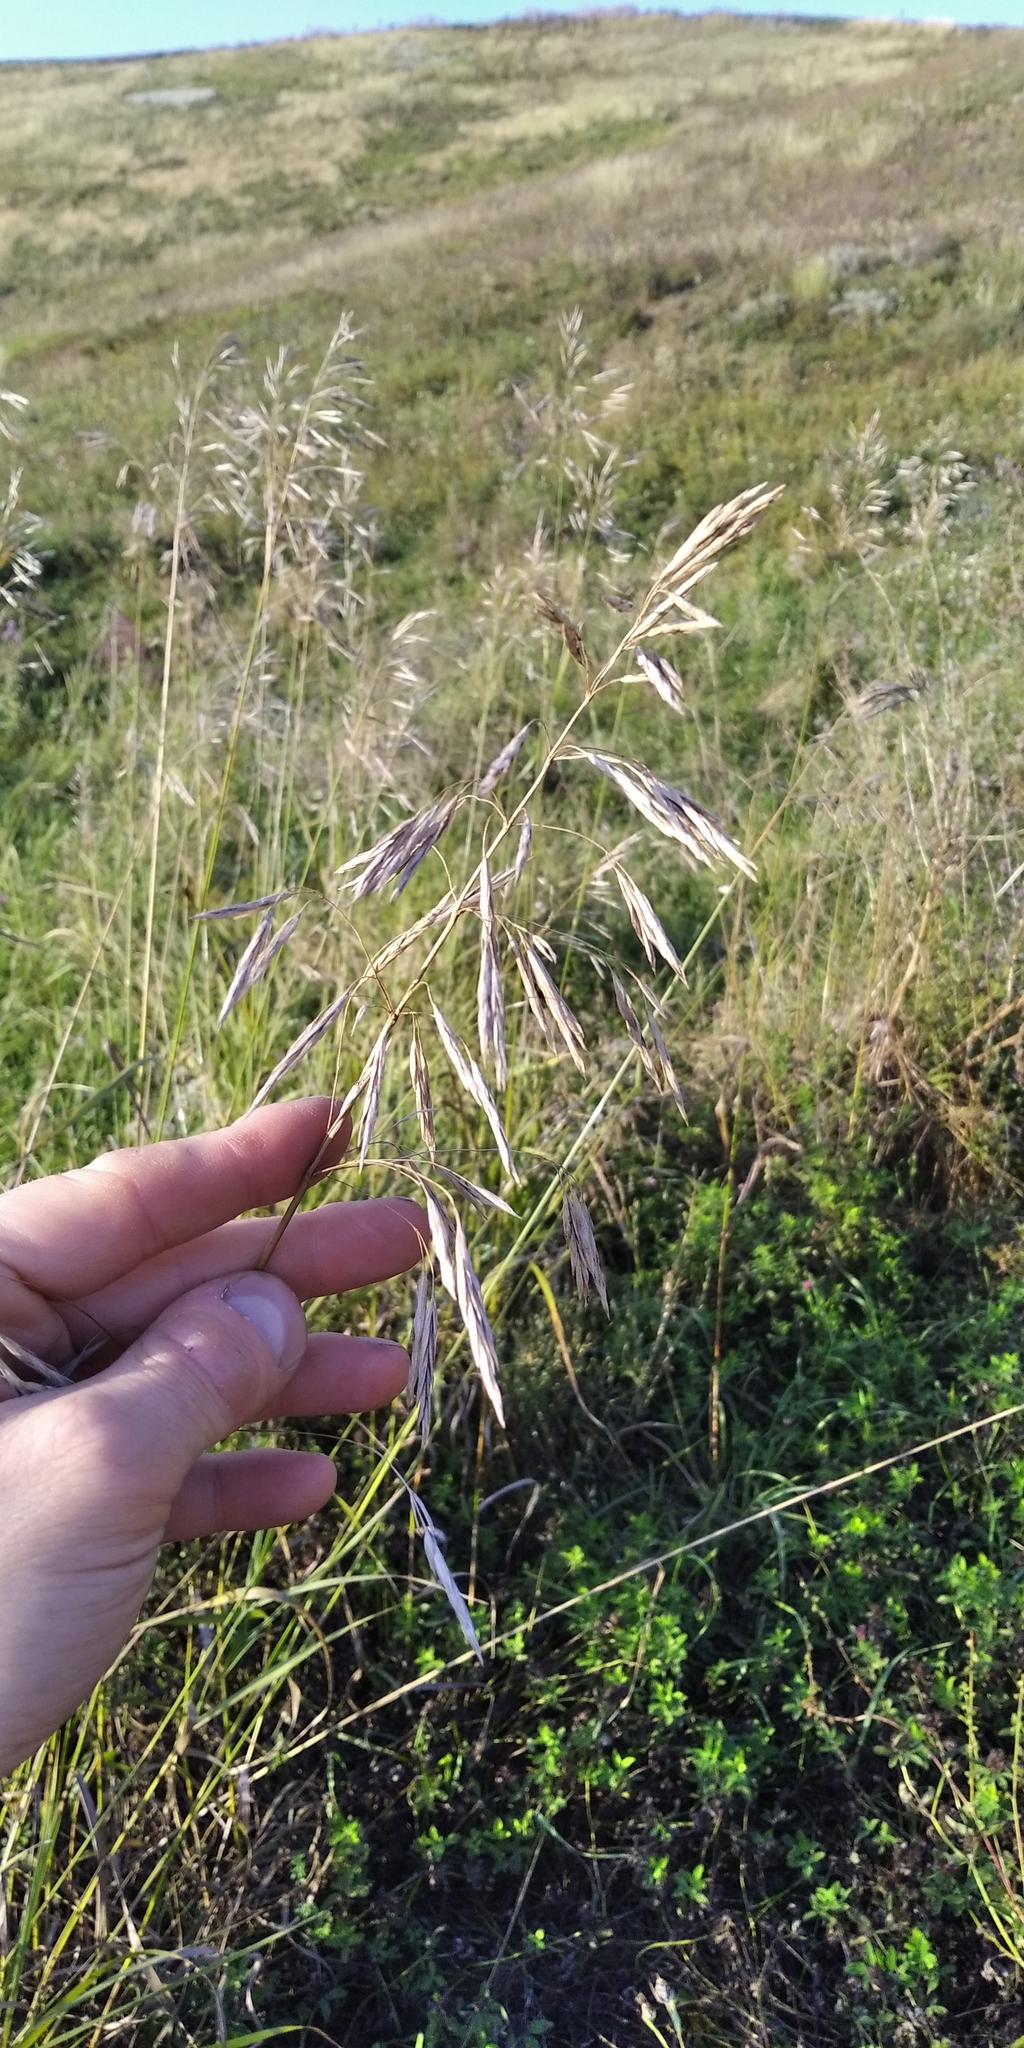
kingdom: Plantae
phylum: Tracheophyta
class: Liliopsida
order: Poales
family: Poaceae
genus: Bromus
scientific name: Bromus inermis
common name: Smooth brome
